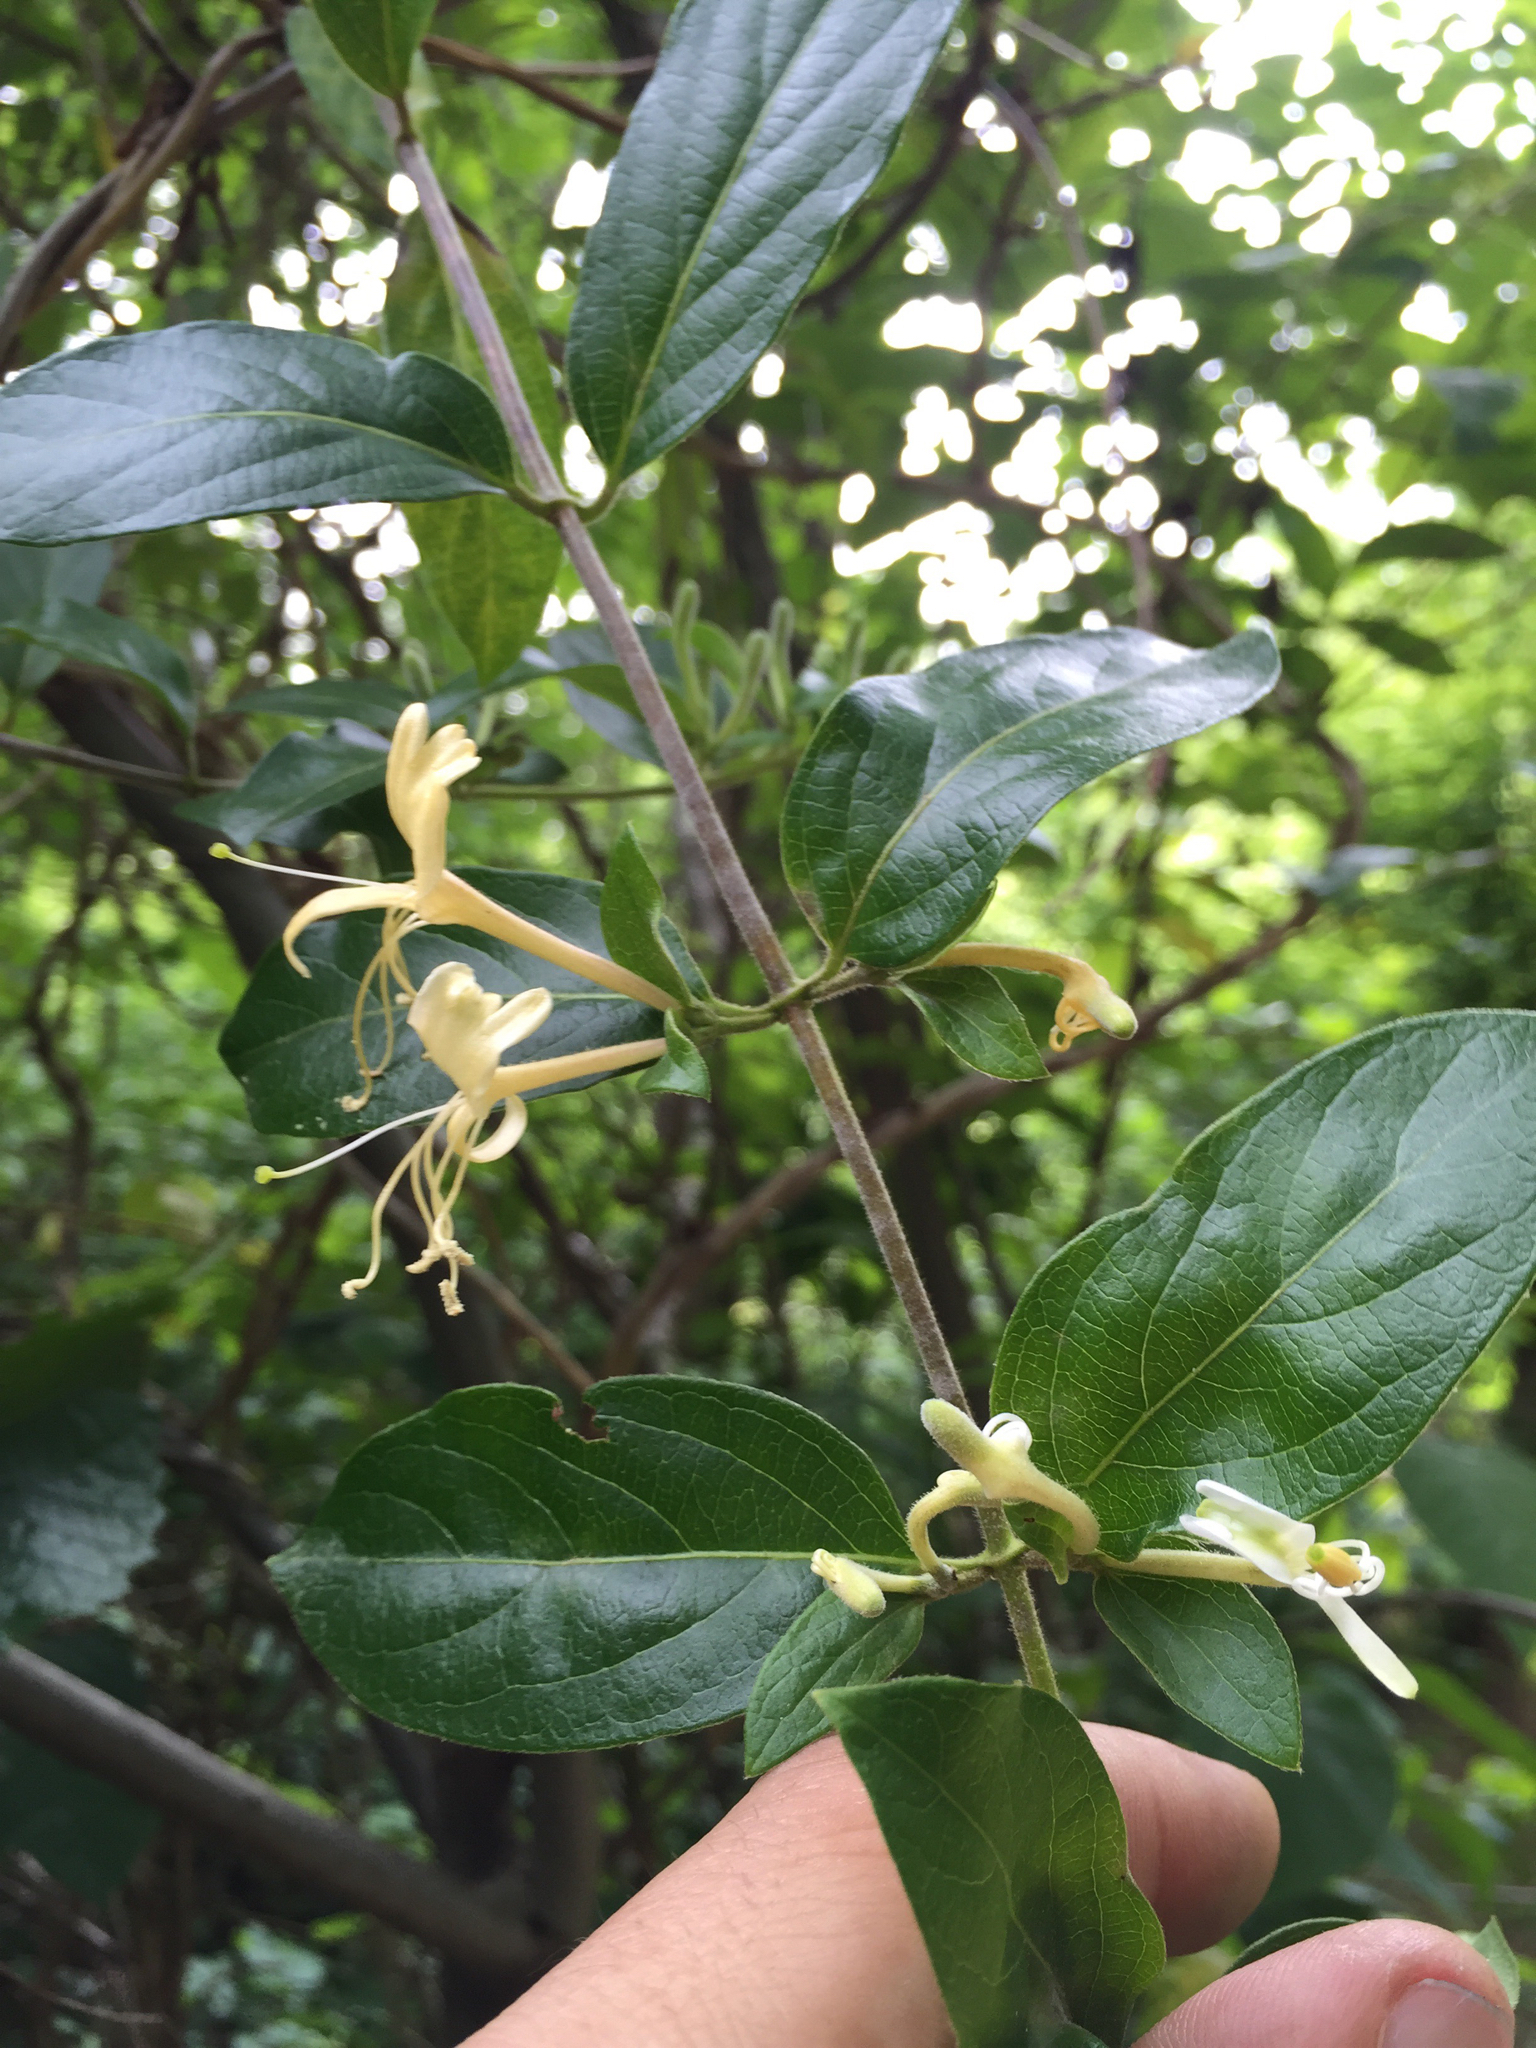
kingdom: Plantae
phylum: Tracheophyta
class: Magnoliopsida
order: Dipsacales
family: Caprifoliaceae
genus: Lonicera
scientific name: Lonicera japonica
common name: Japanese honeysuckle
